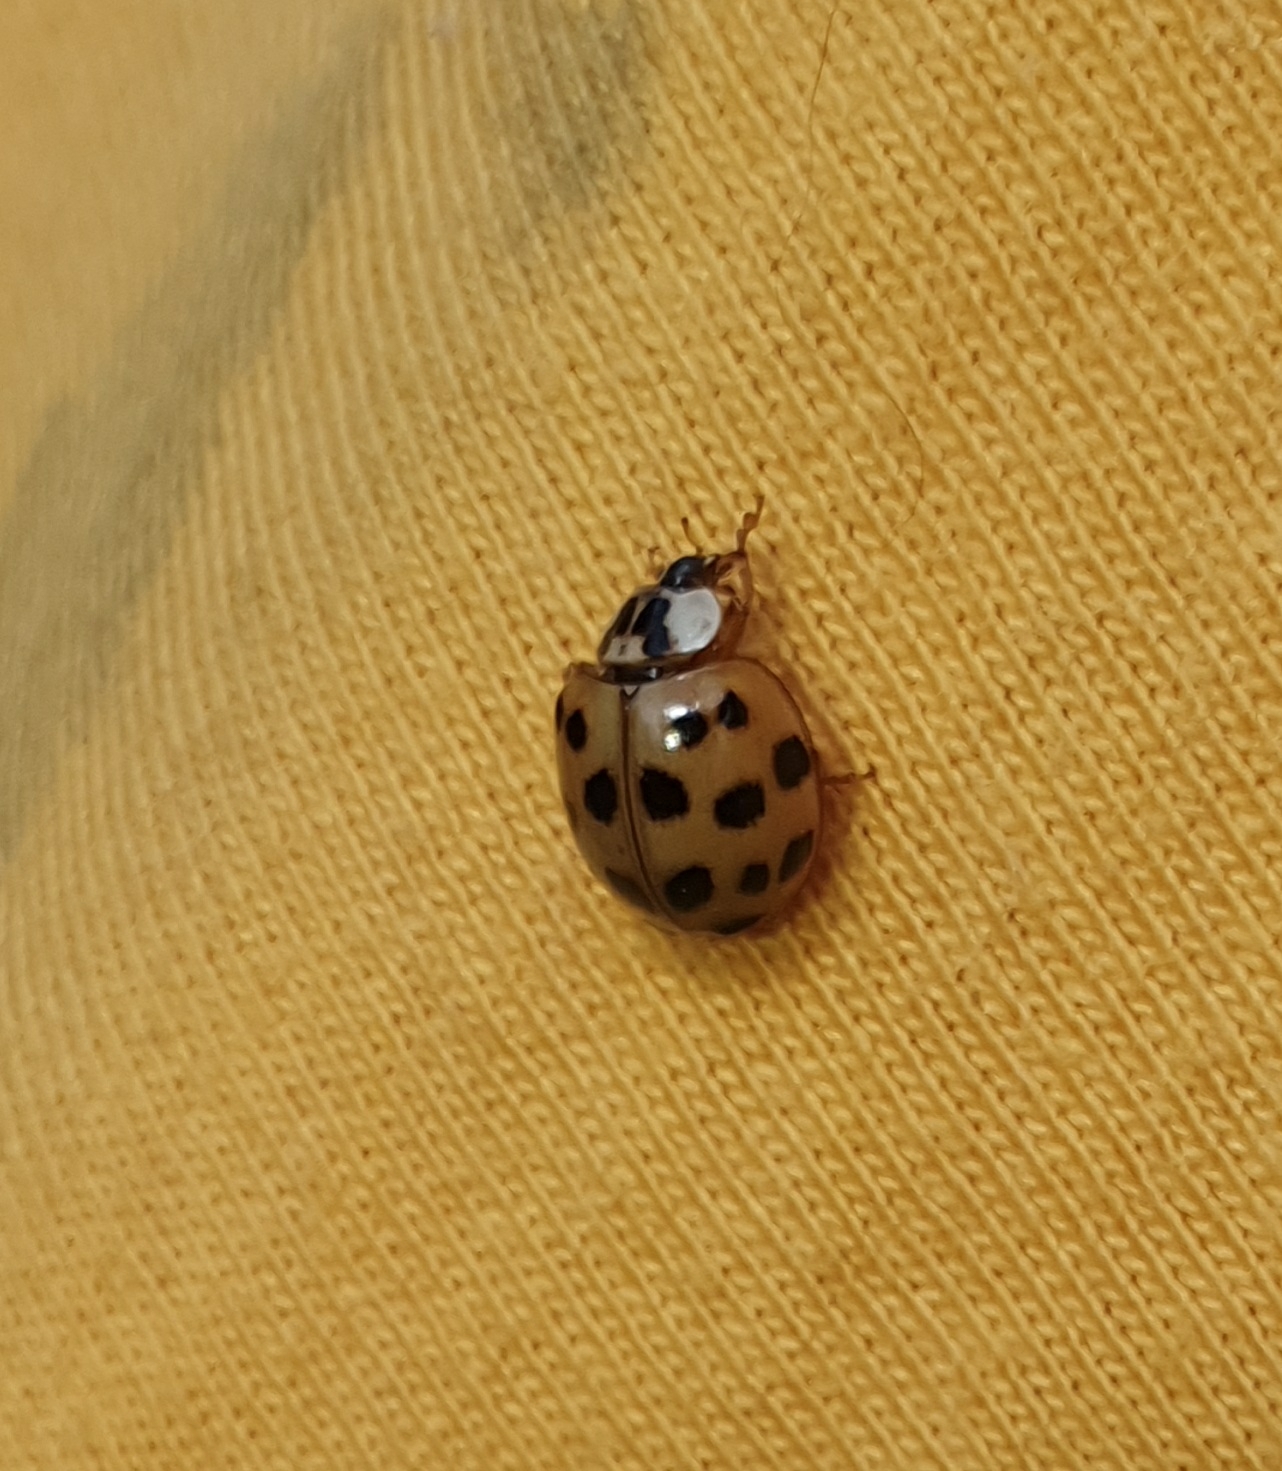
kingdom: Animalia
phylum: Arthropoda
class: Insecta
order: Coleoptera
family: Coccinellidae
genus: Harmonia
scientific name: Harmonia axyridis
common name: Harlequin ladybird
